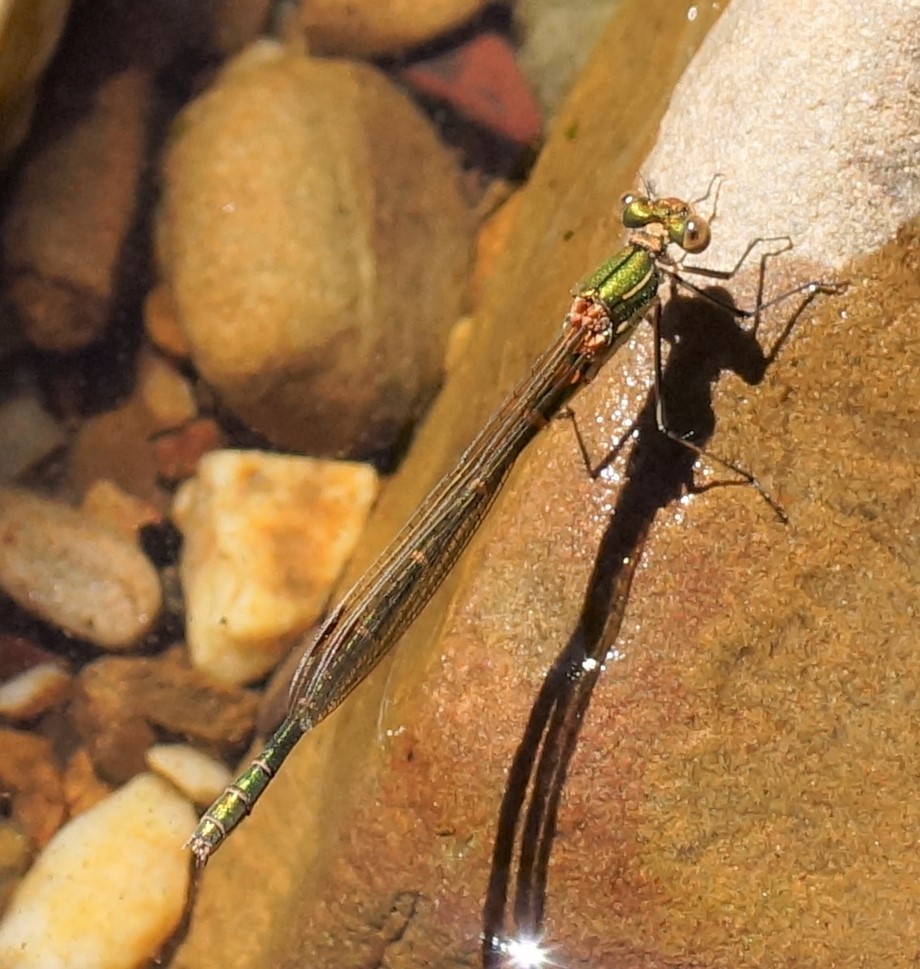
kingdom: Animalia
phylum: Arthropoda
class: Insecta
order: Odonata
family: Lestidae
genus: Austrolestes
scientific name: Austrolestes cingulatus
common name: Metallic ringtail
